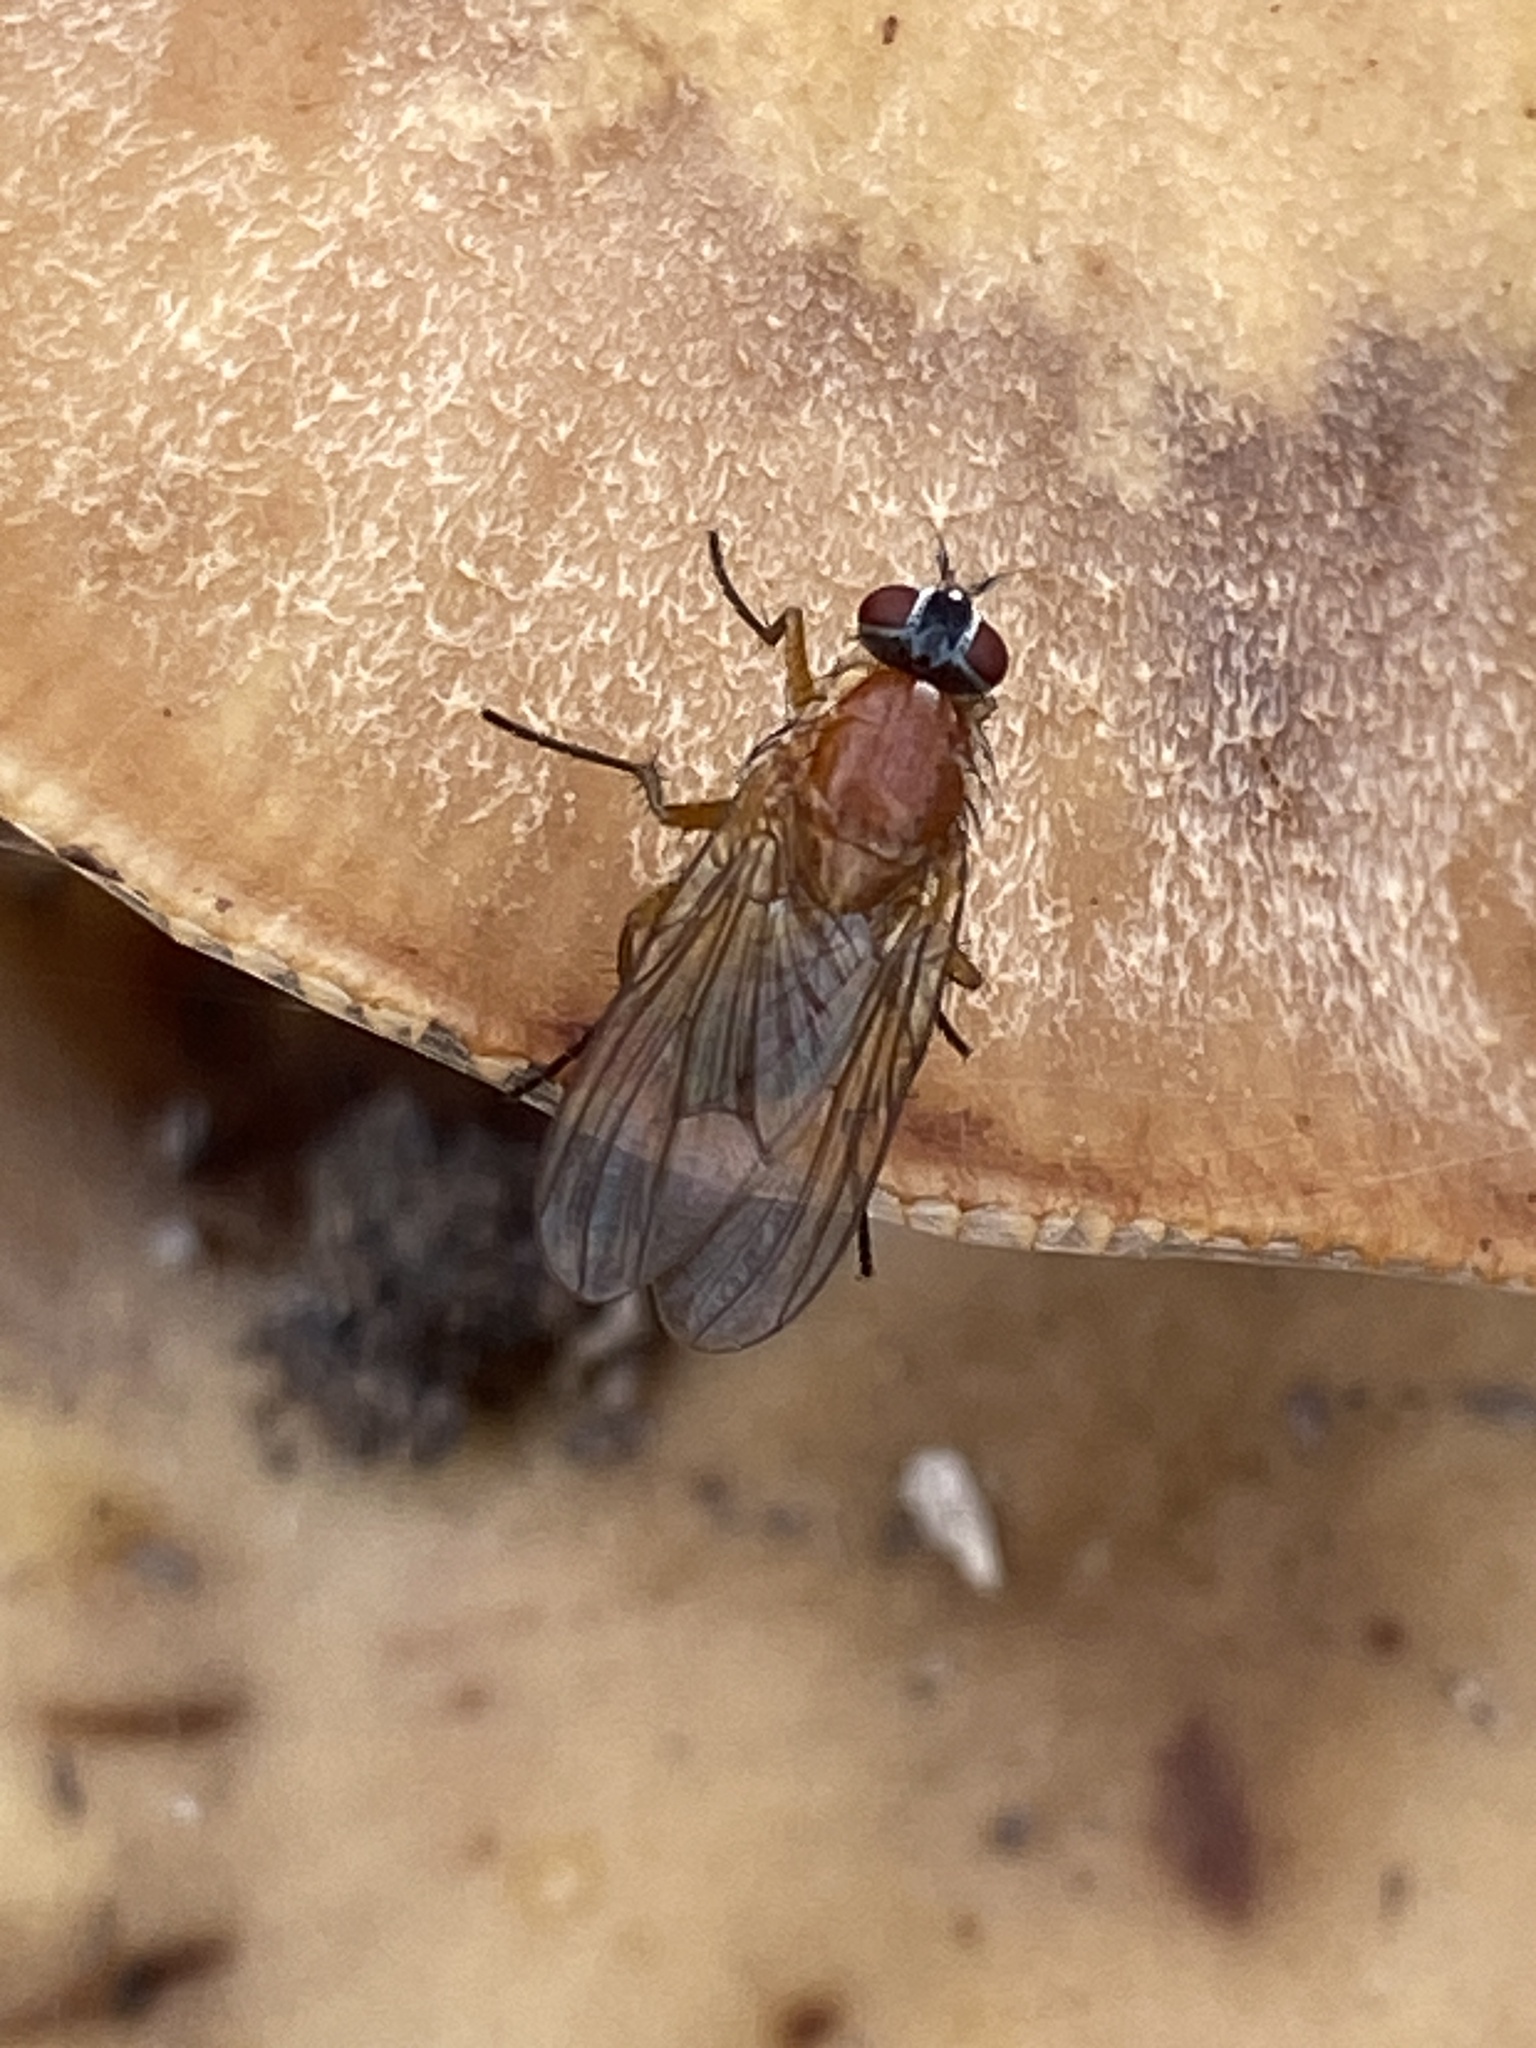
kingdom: Animalia
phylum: Arthropoda
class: Insecta
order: Diptera
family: Muscidae
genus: Thricops
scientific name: Thricops diaphanus
